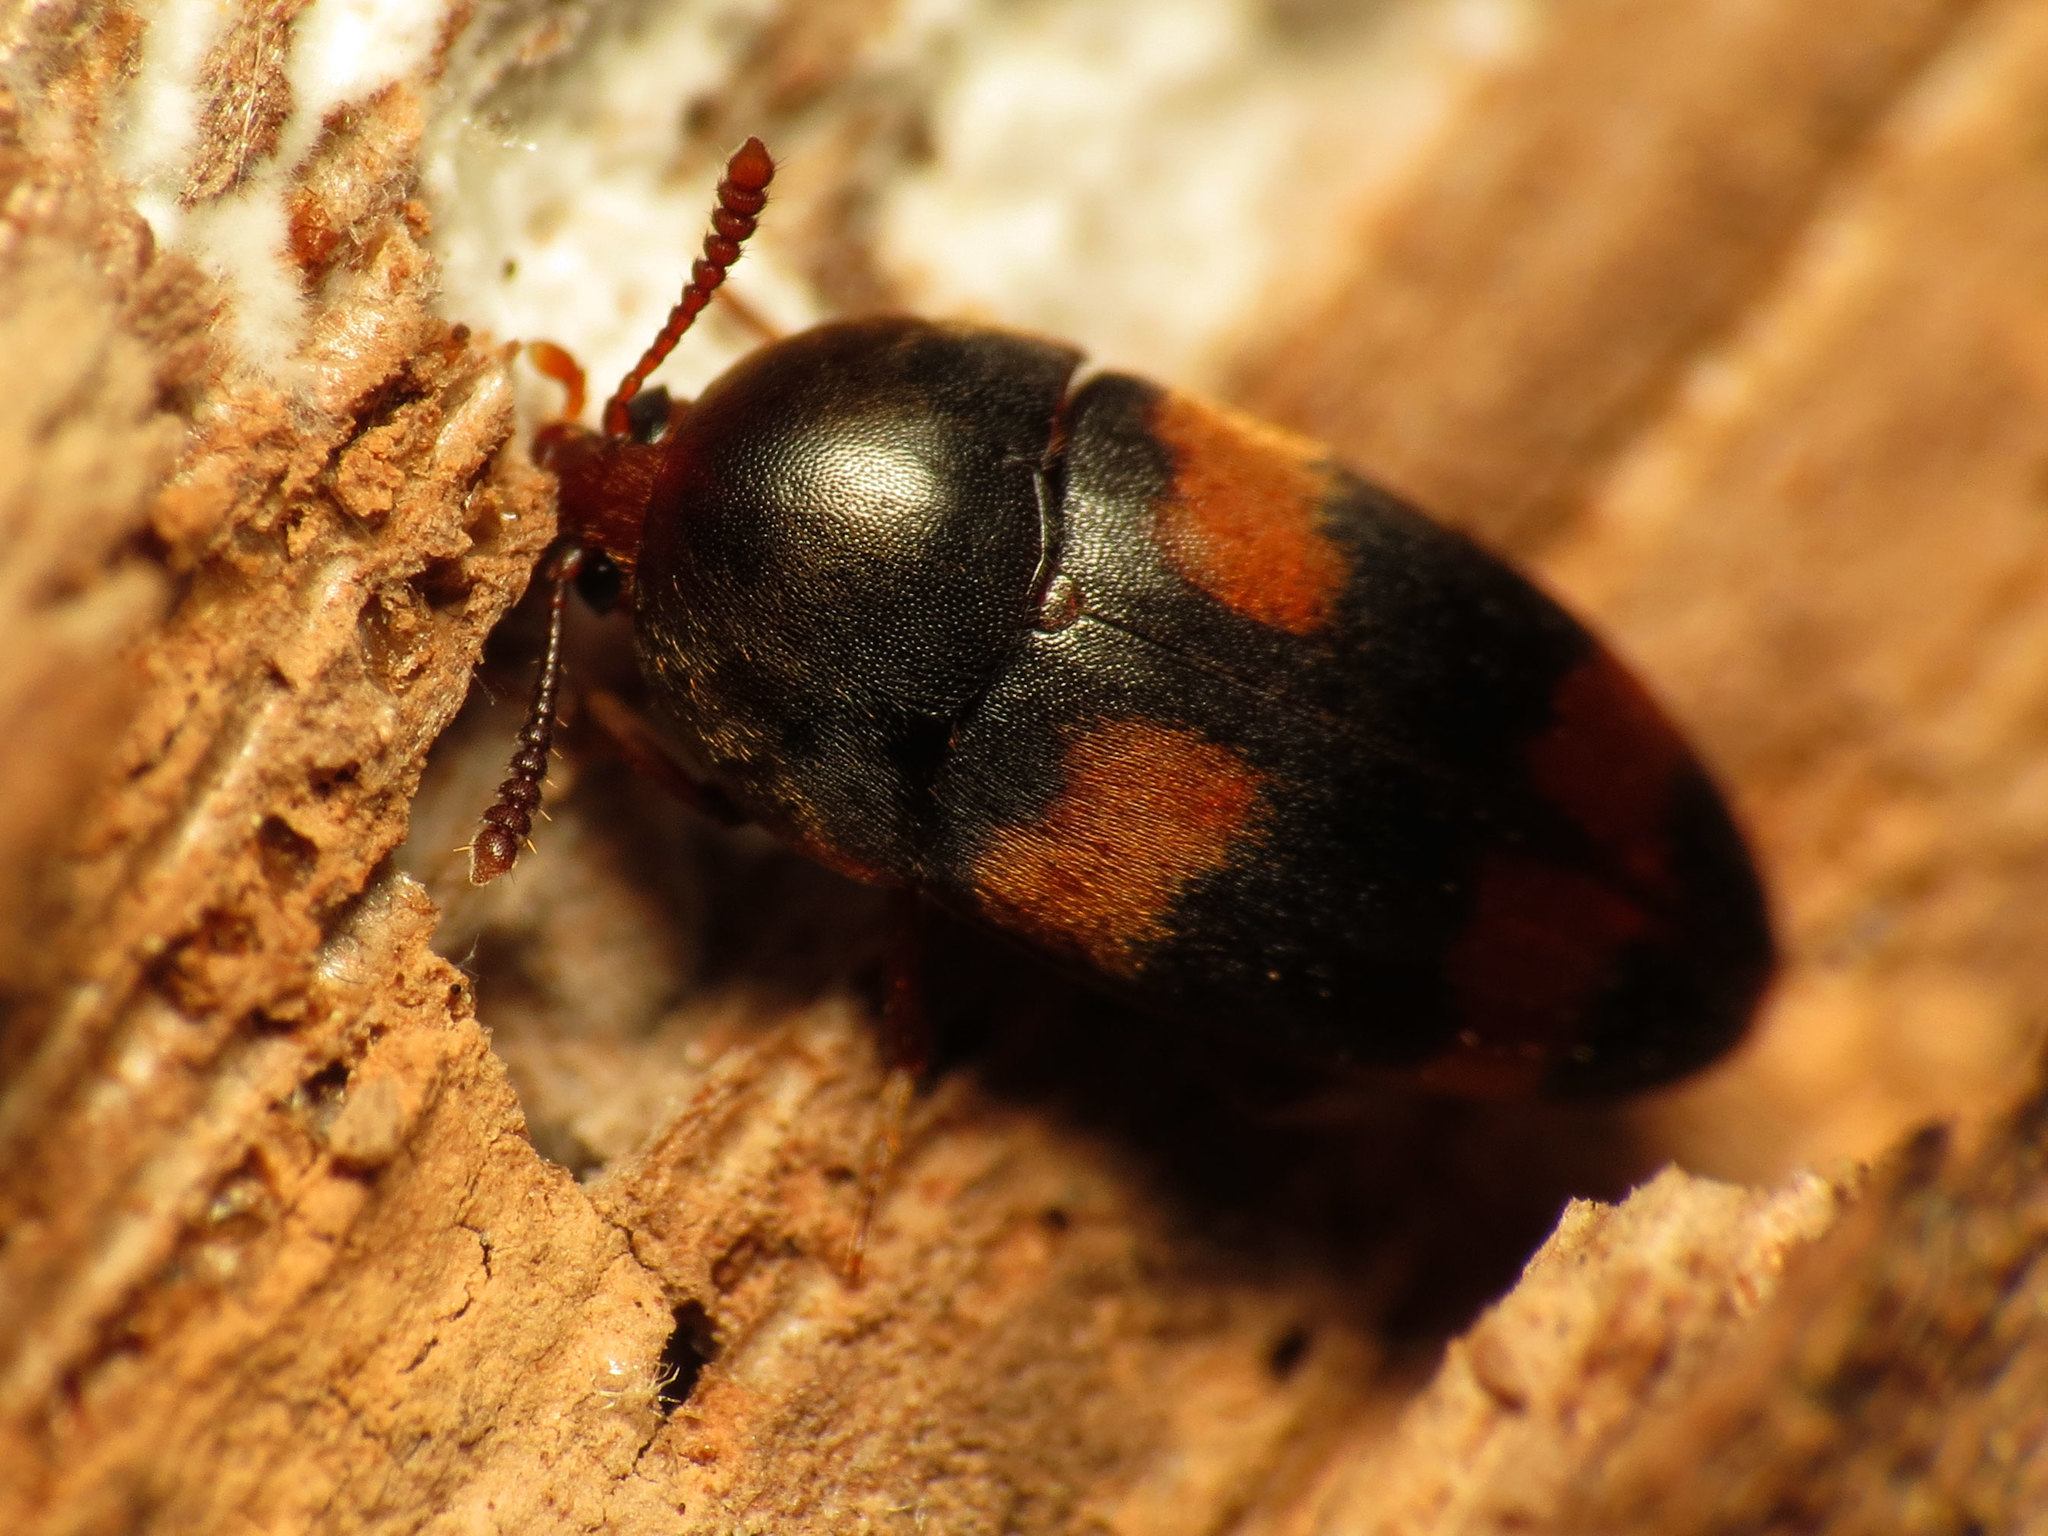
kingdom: Animalia
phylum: Arthropoda
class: Insecta
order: Coleoptera
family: Tetratomidae
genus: Holostrophus
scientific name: Holostrophus bifasciatus
